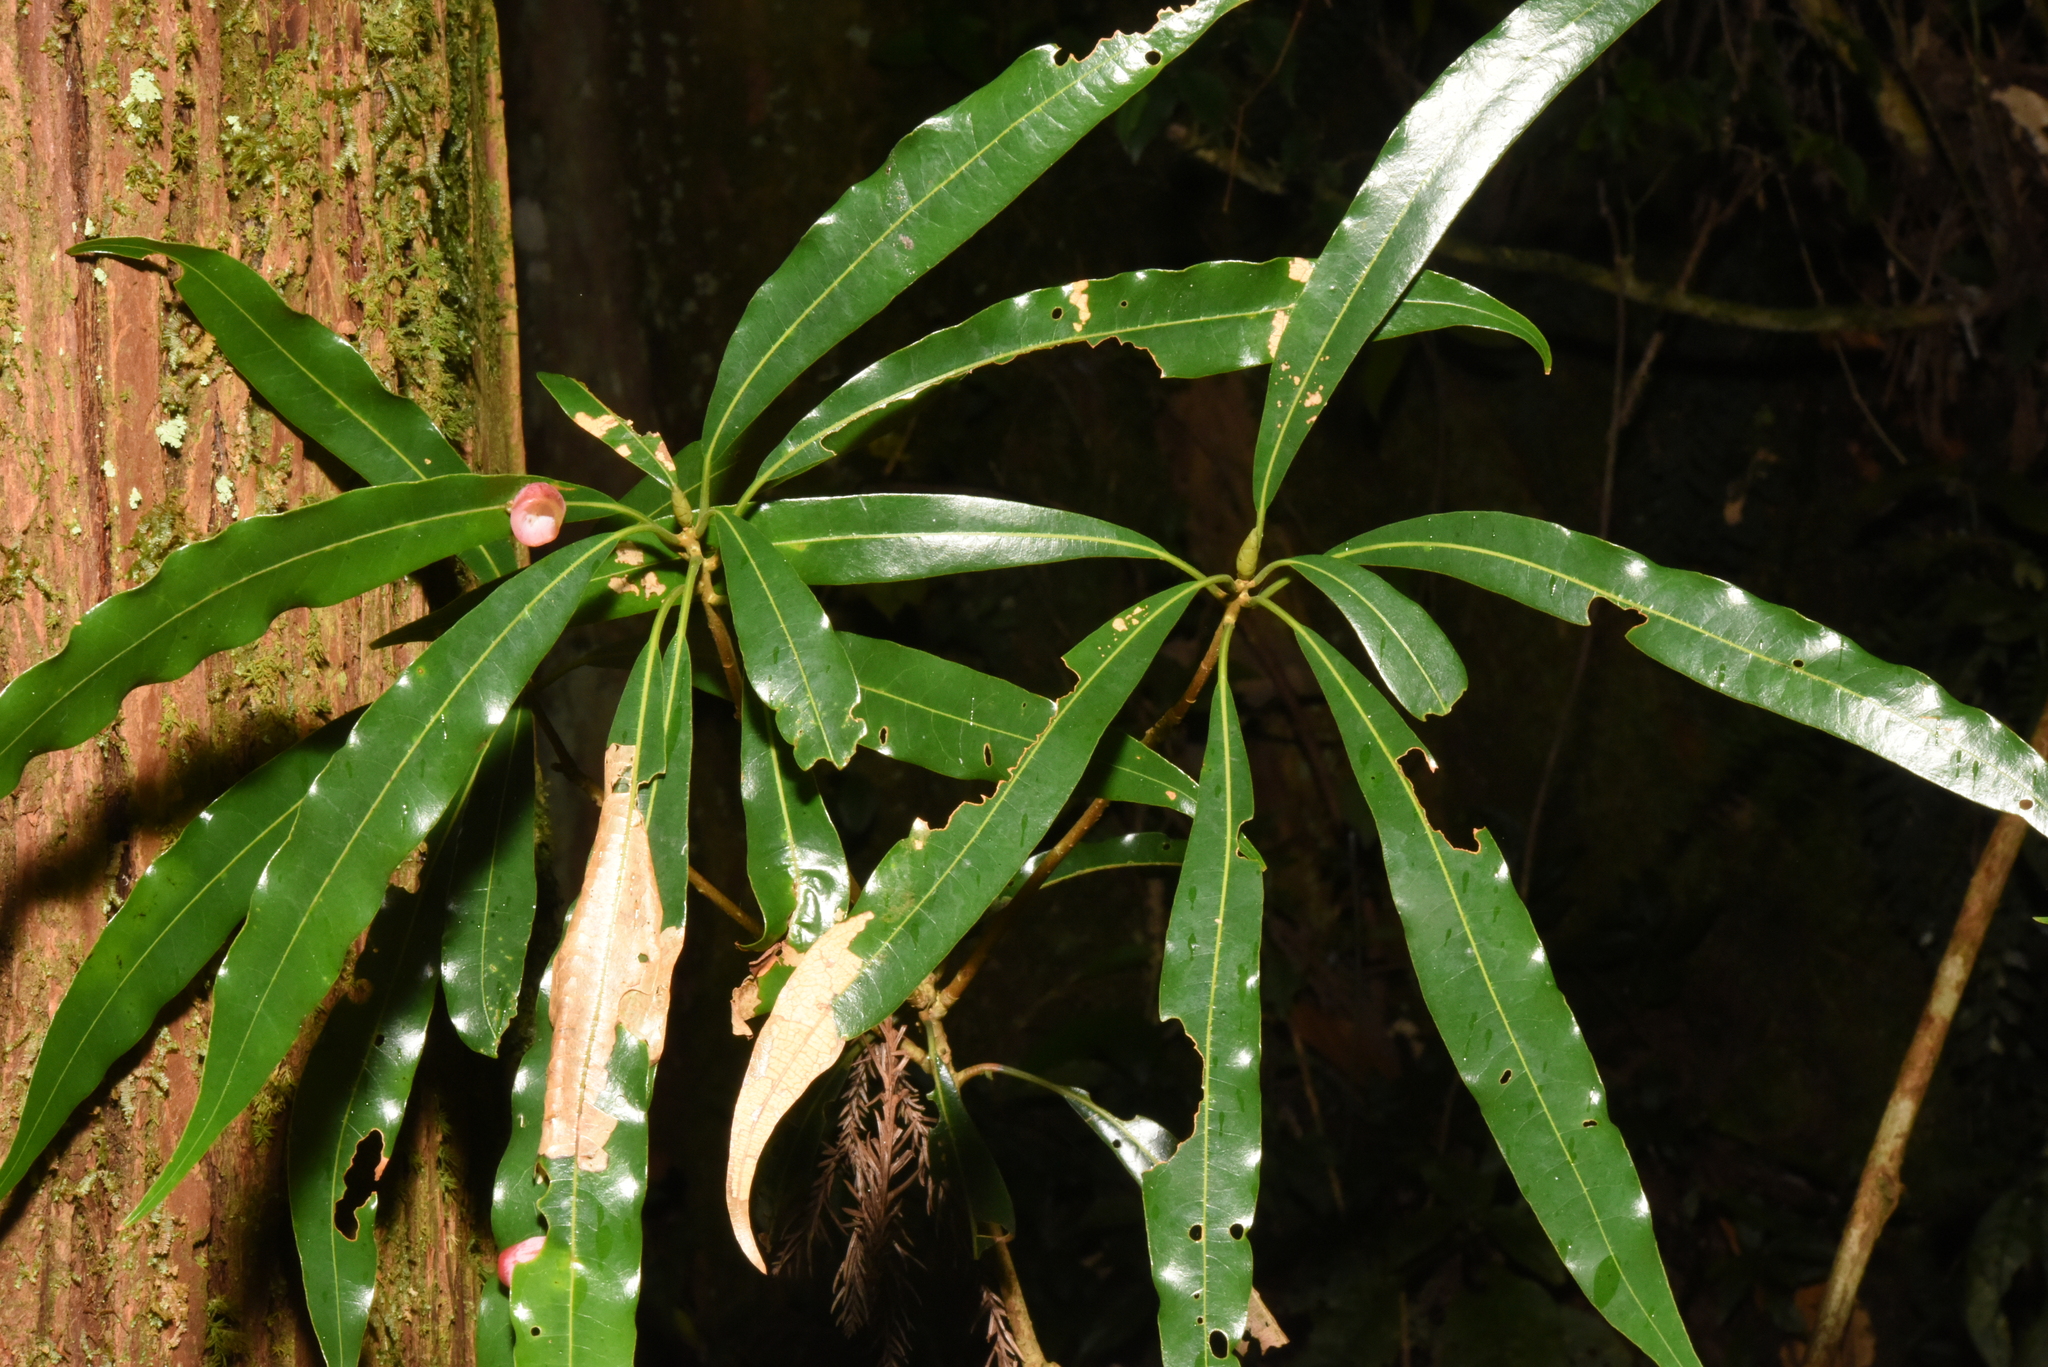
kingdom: Plantae
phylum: Tracheophyta
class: Magnoliopsida
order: Laurales
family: Lauraceae
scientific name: Lauraceae
